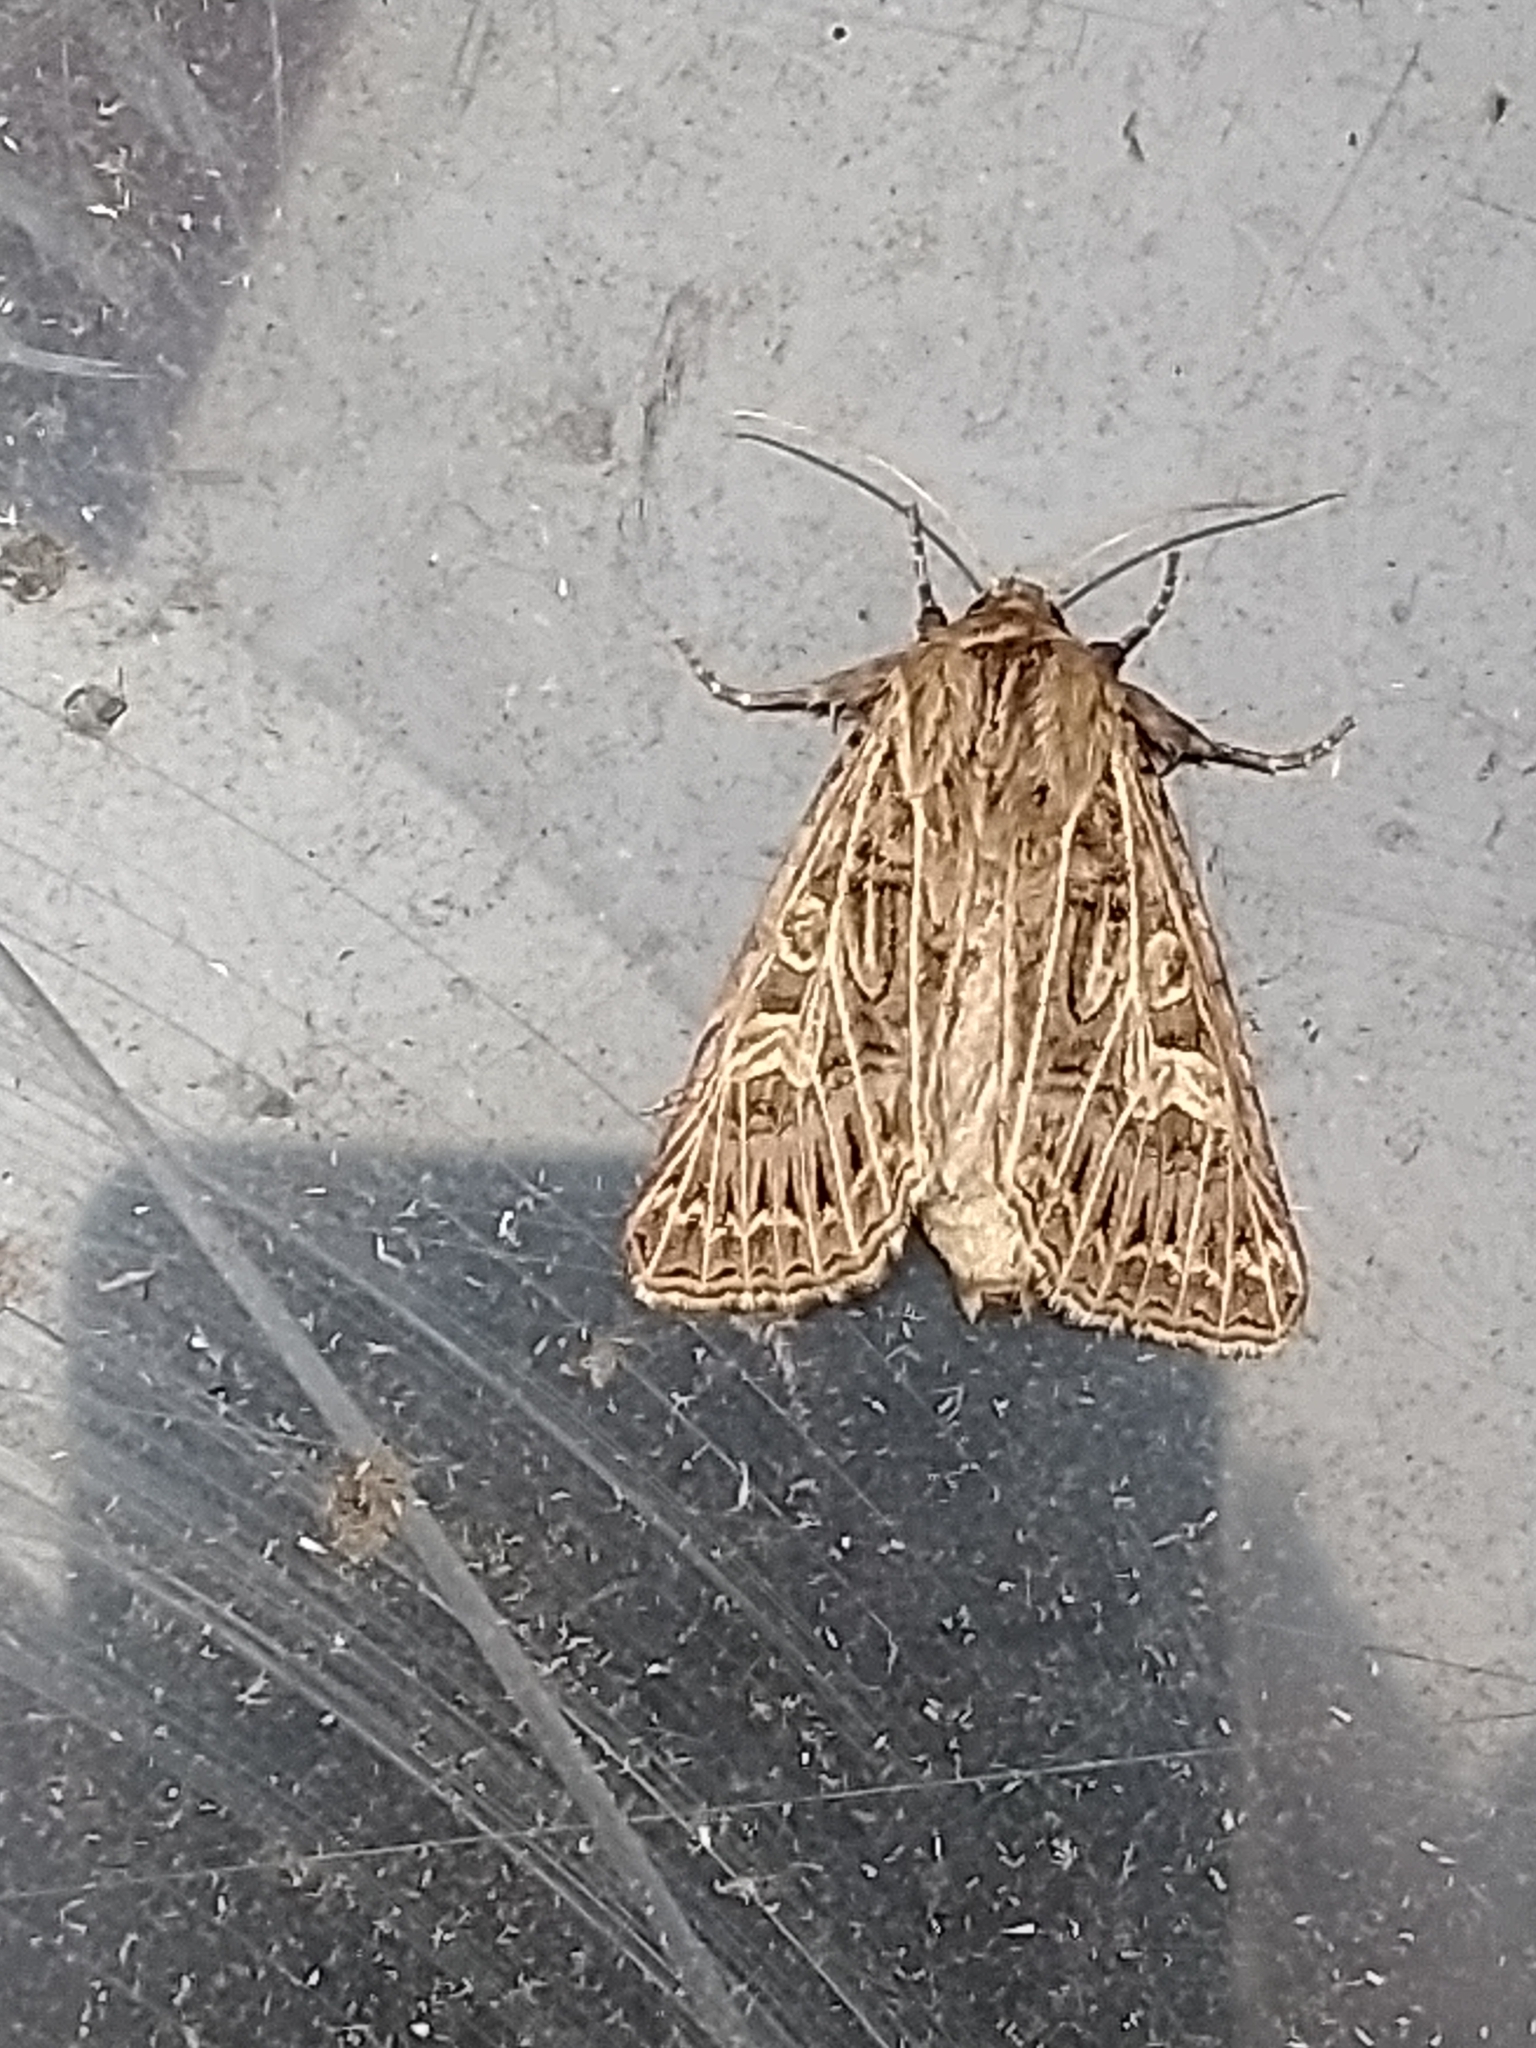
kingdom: Animalia
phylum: Arthropoda
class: Insecta
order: Lepidoptera
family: Noctuidae
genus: Tholera
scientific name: Tholera decimalis
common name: Feathered gothic
